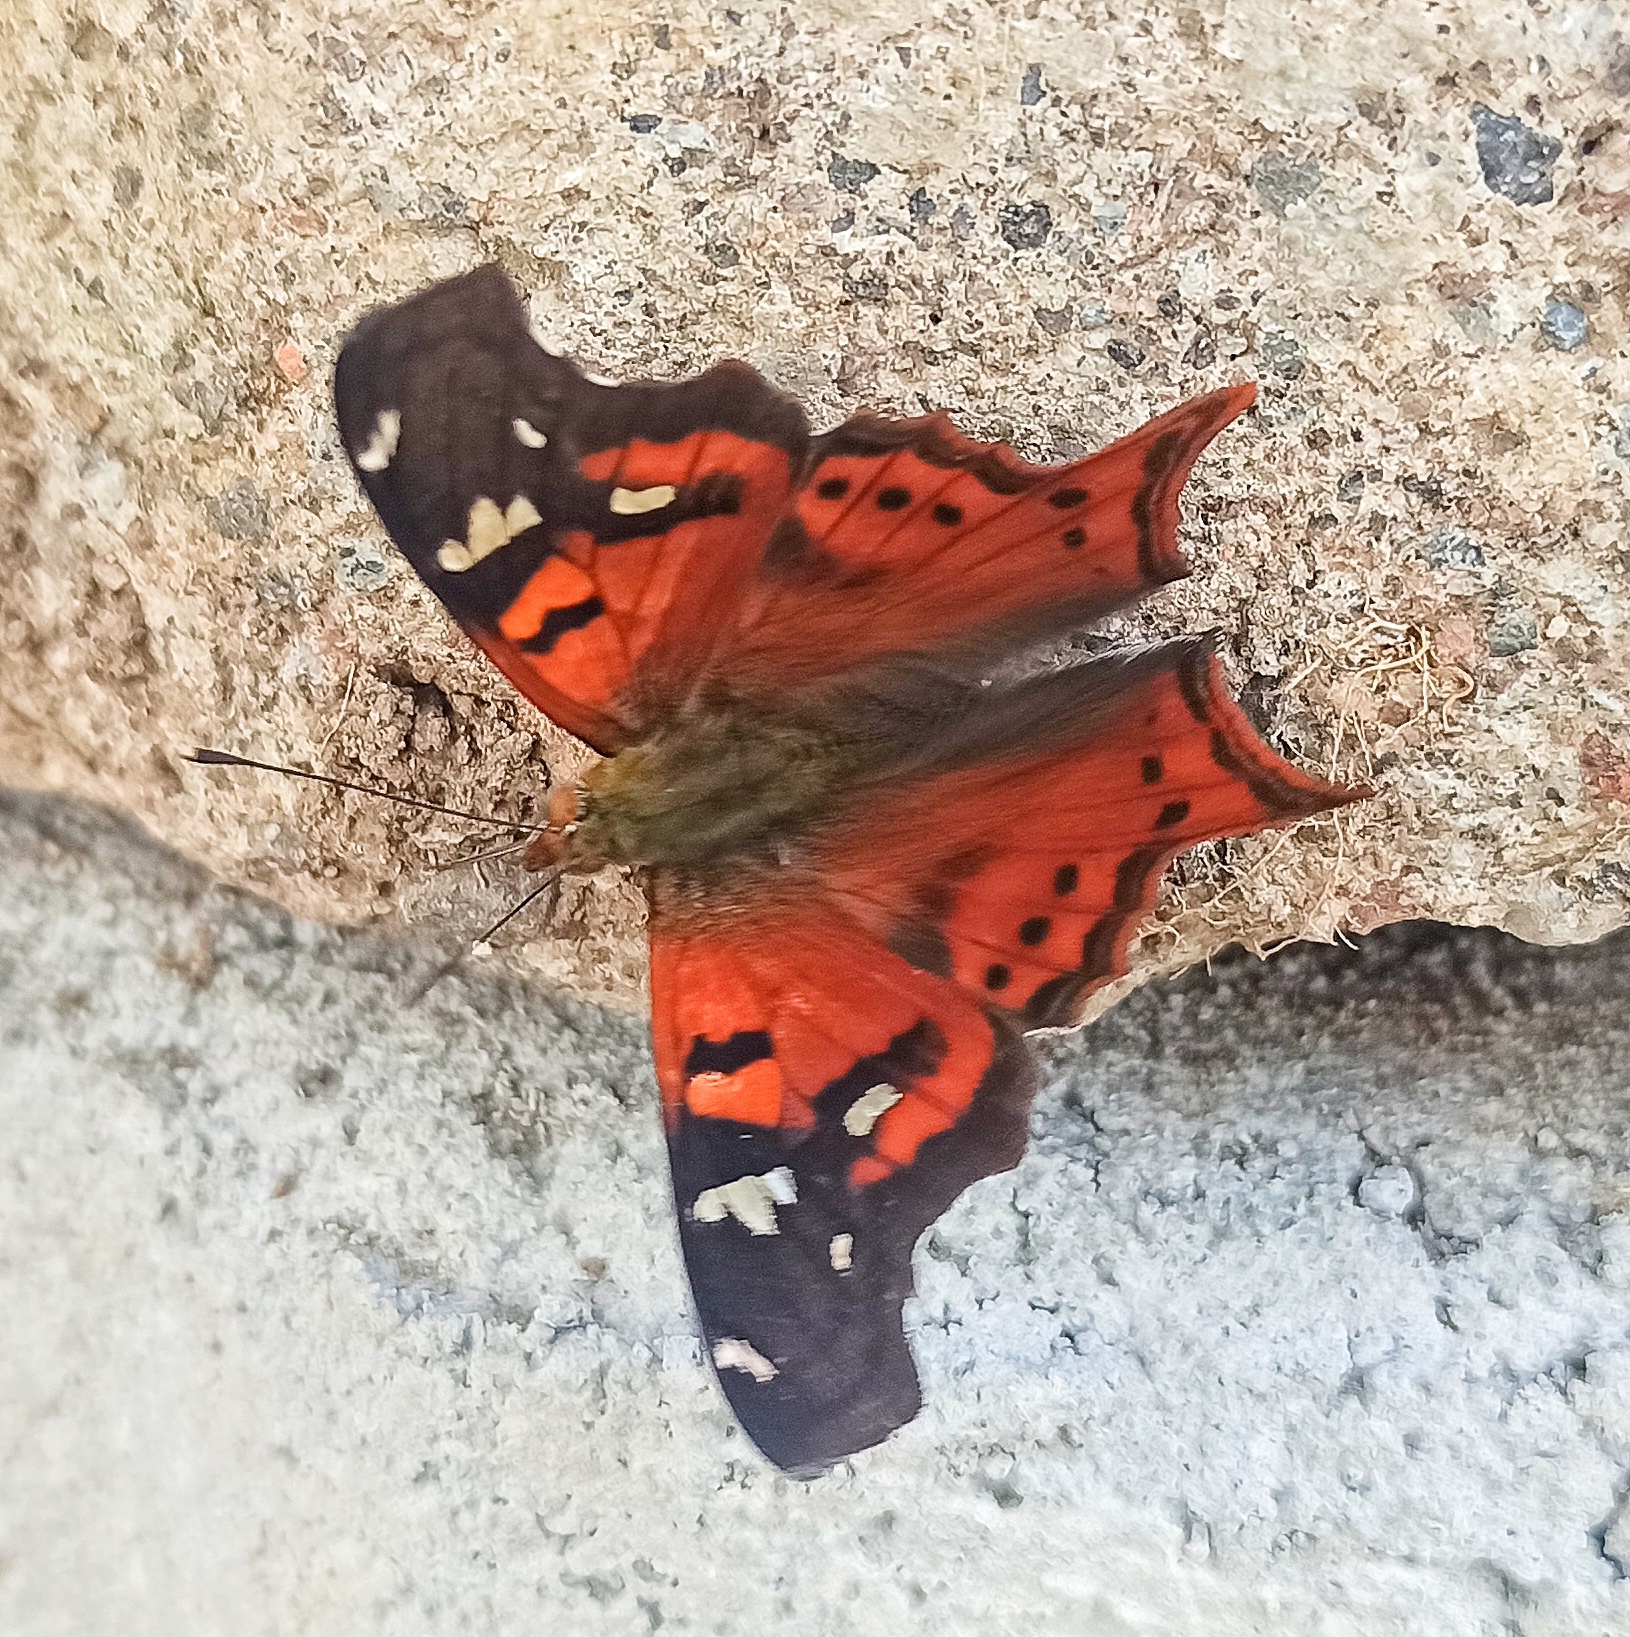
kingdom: Animalia
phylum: Arthropoda
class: Insecta
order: Lepidoptera
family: Nymphalidae
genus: Hypanartia
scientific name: Hypanartia lindigii
